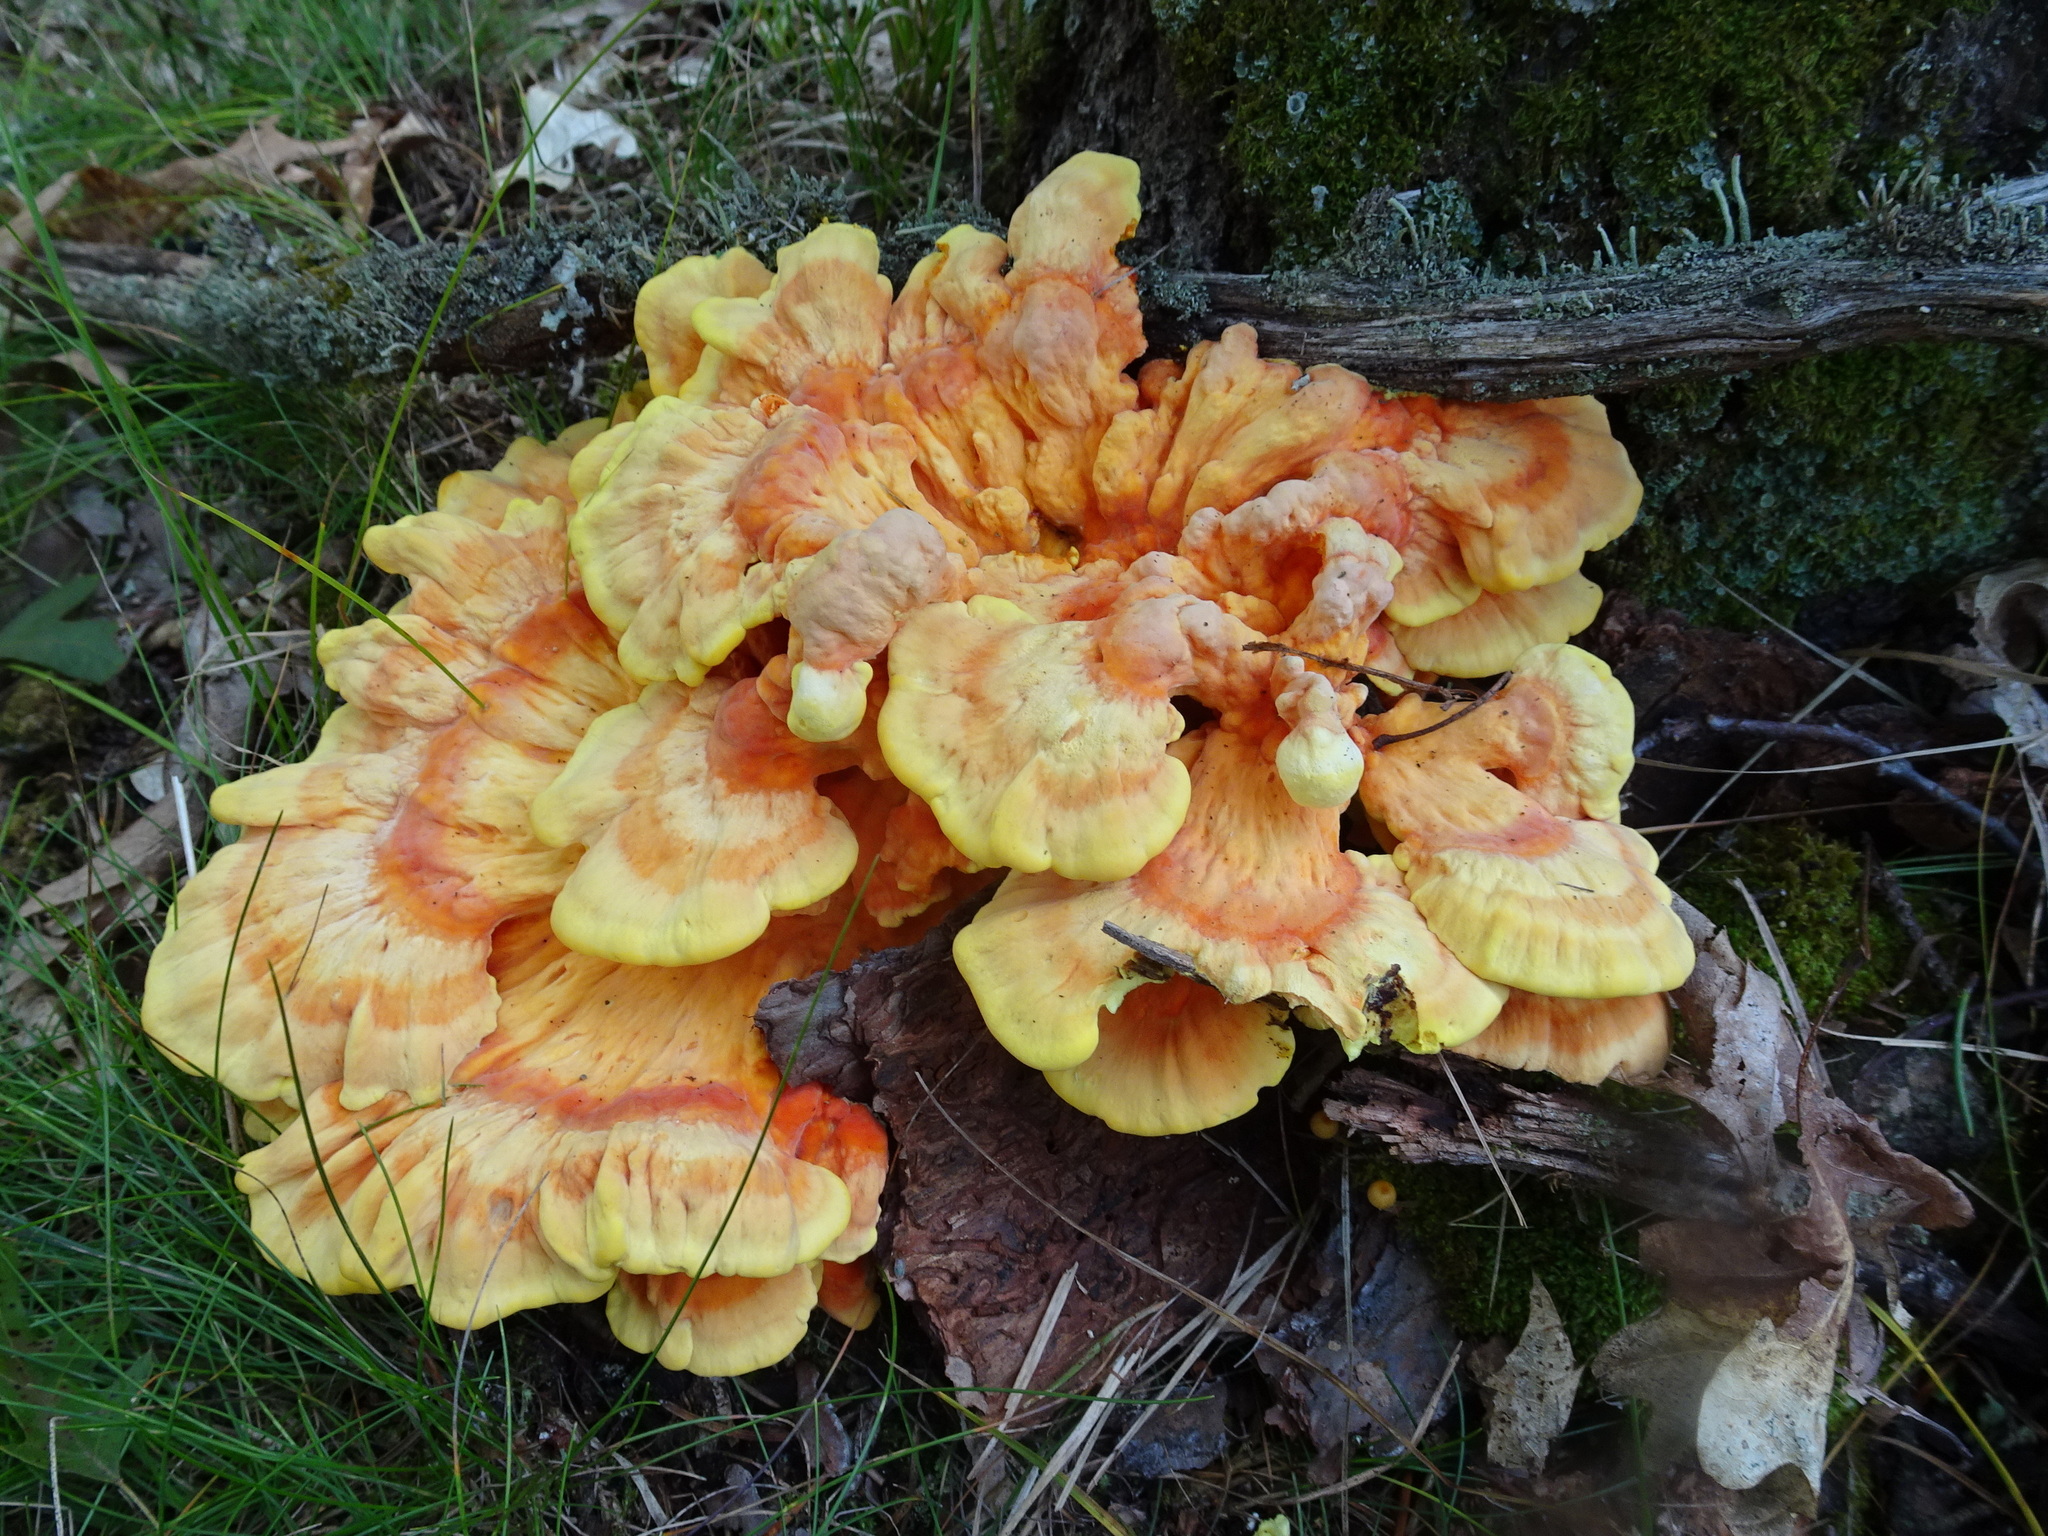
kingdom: Fungi
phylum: Basidiomycota
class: Agaricomycetes
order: Polyporales
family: Laetiporaceae
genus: Laetiporus
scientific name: Laetiporus sulphureus
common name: Chicken of the woods
